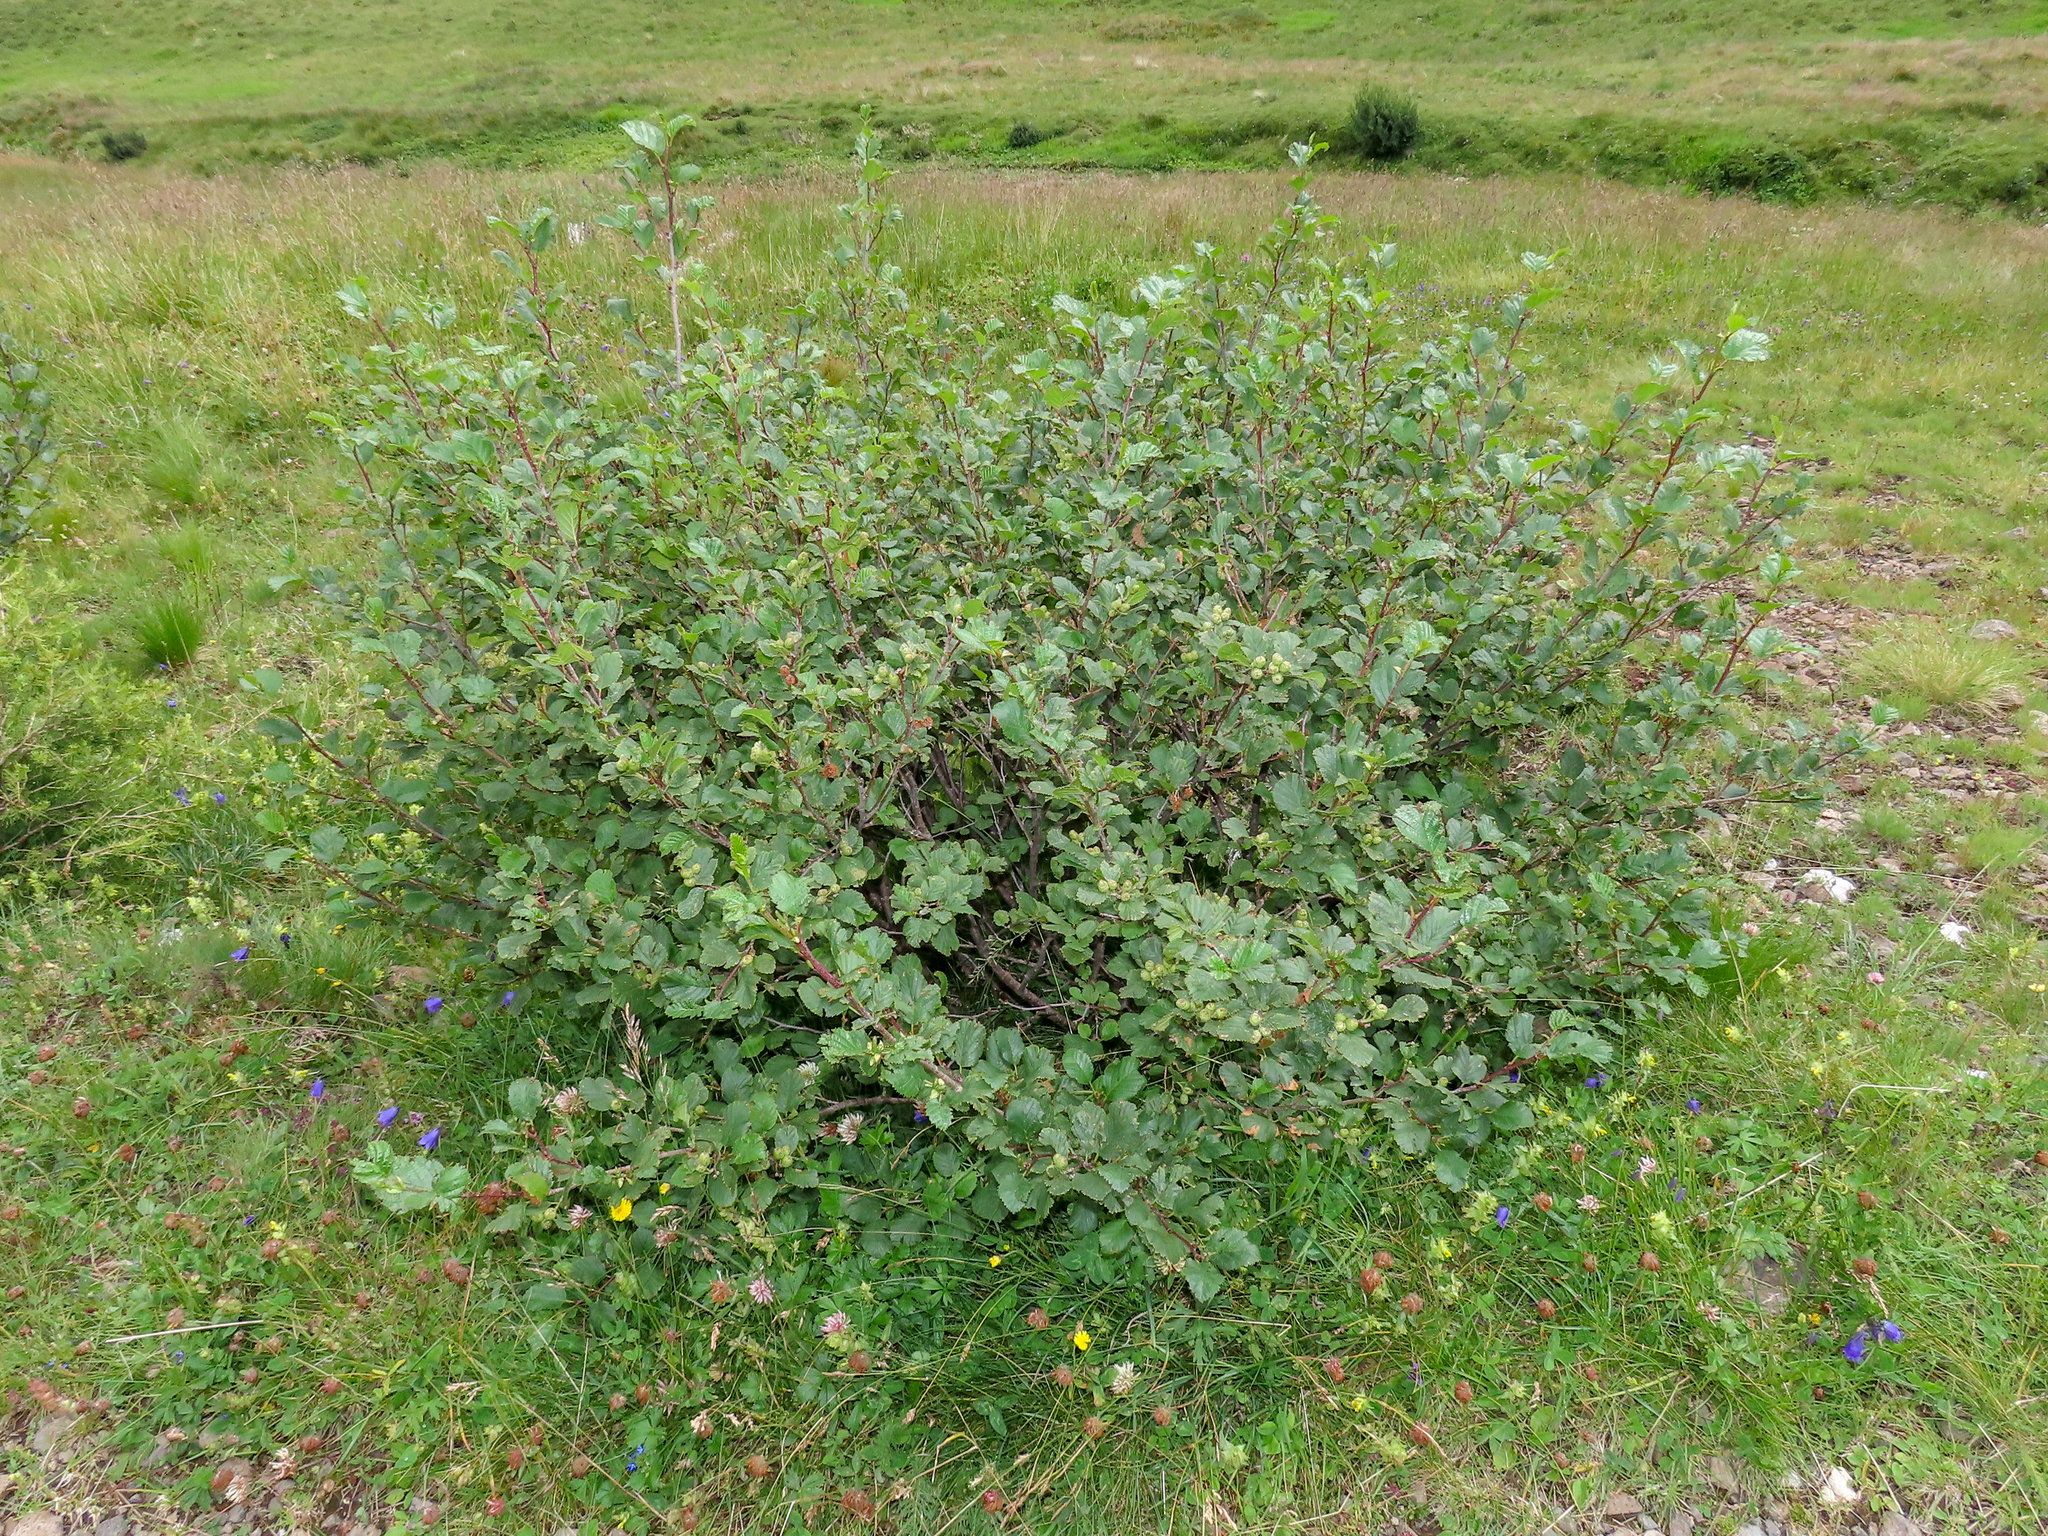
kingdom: Plantae
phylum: Tracheophyta
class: Magnoliopsida
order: Fagales
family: Betulaceae
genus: Alnus
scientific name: Alnus alnobetula
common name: Green alder
